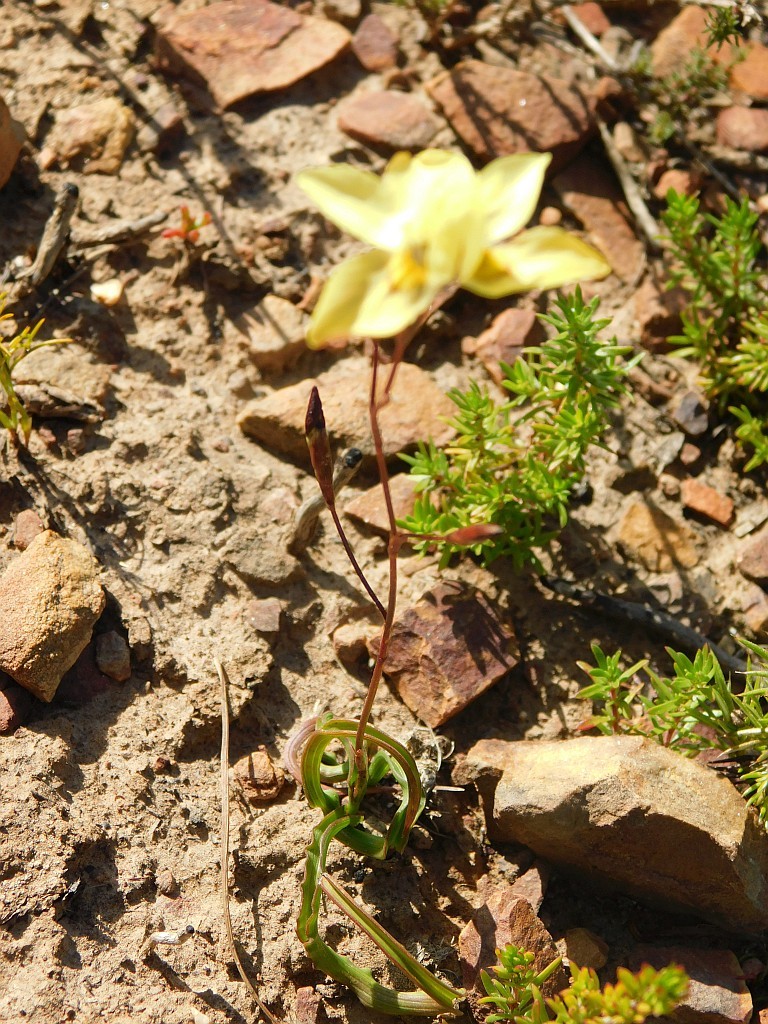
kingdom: Plantae
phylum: Tracheophyta
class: Liliopsida
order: Asparagales
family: Iridaceae
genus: Moraea
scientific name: Moraea gawleri
